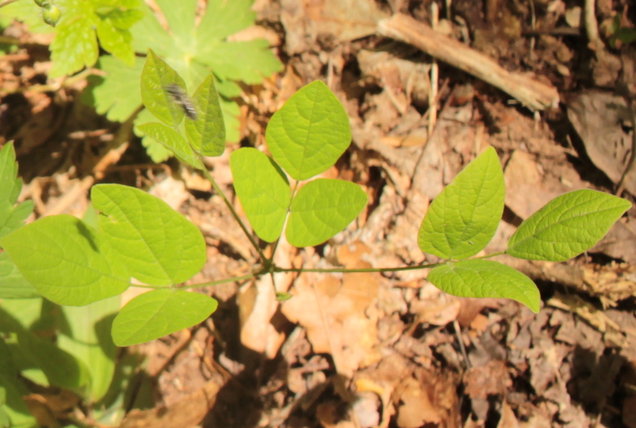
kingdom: Plantae
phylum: Tracheophyta
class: Magnoliopsida
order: Fabales
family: Fabaceae
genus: Hylodesmum
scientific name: Hylodesmum nudiflorum
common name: Bare-stemmed tick-trefoil
